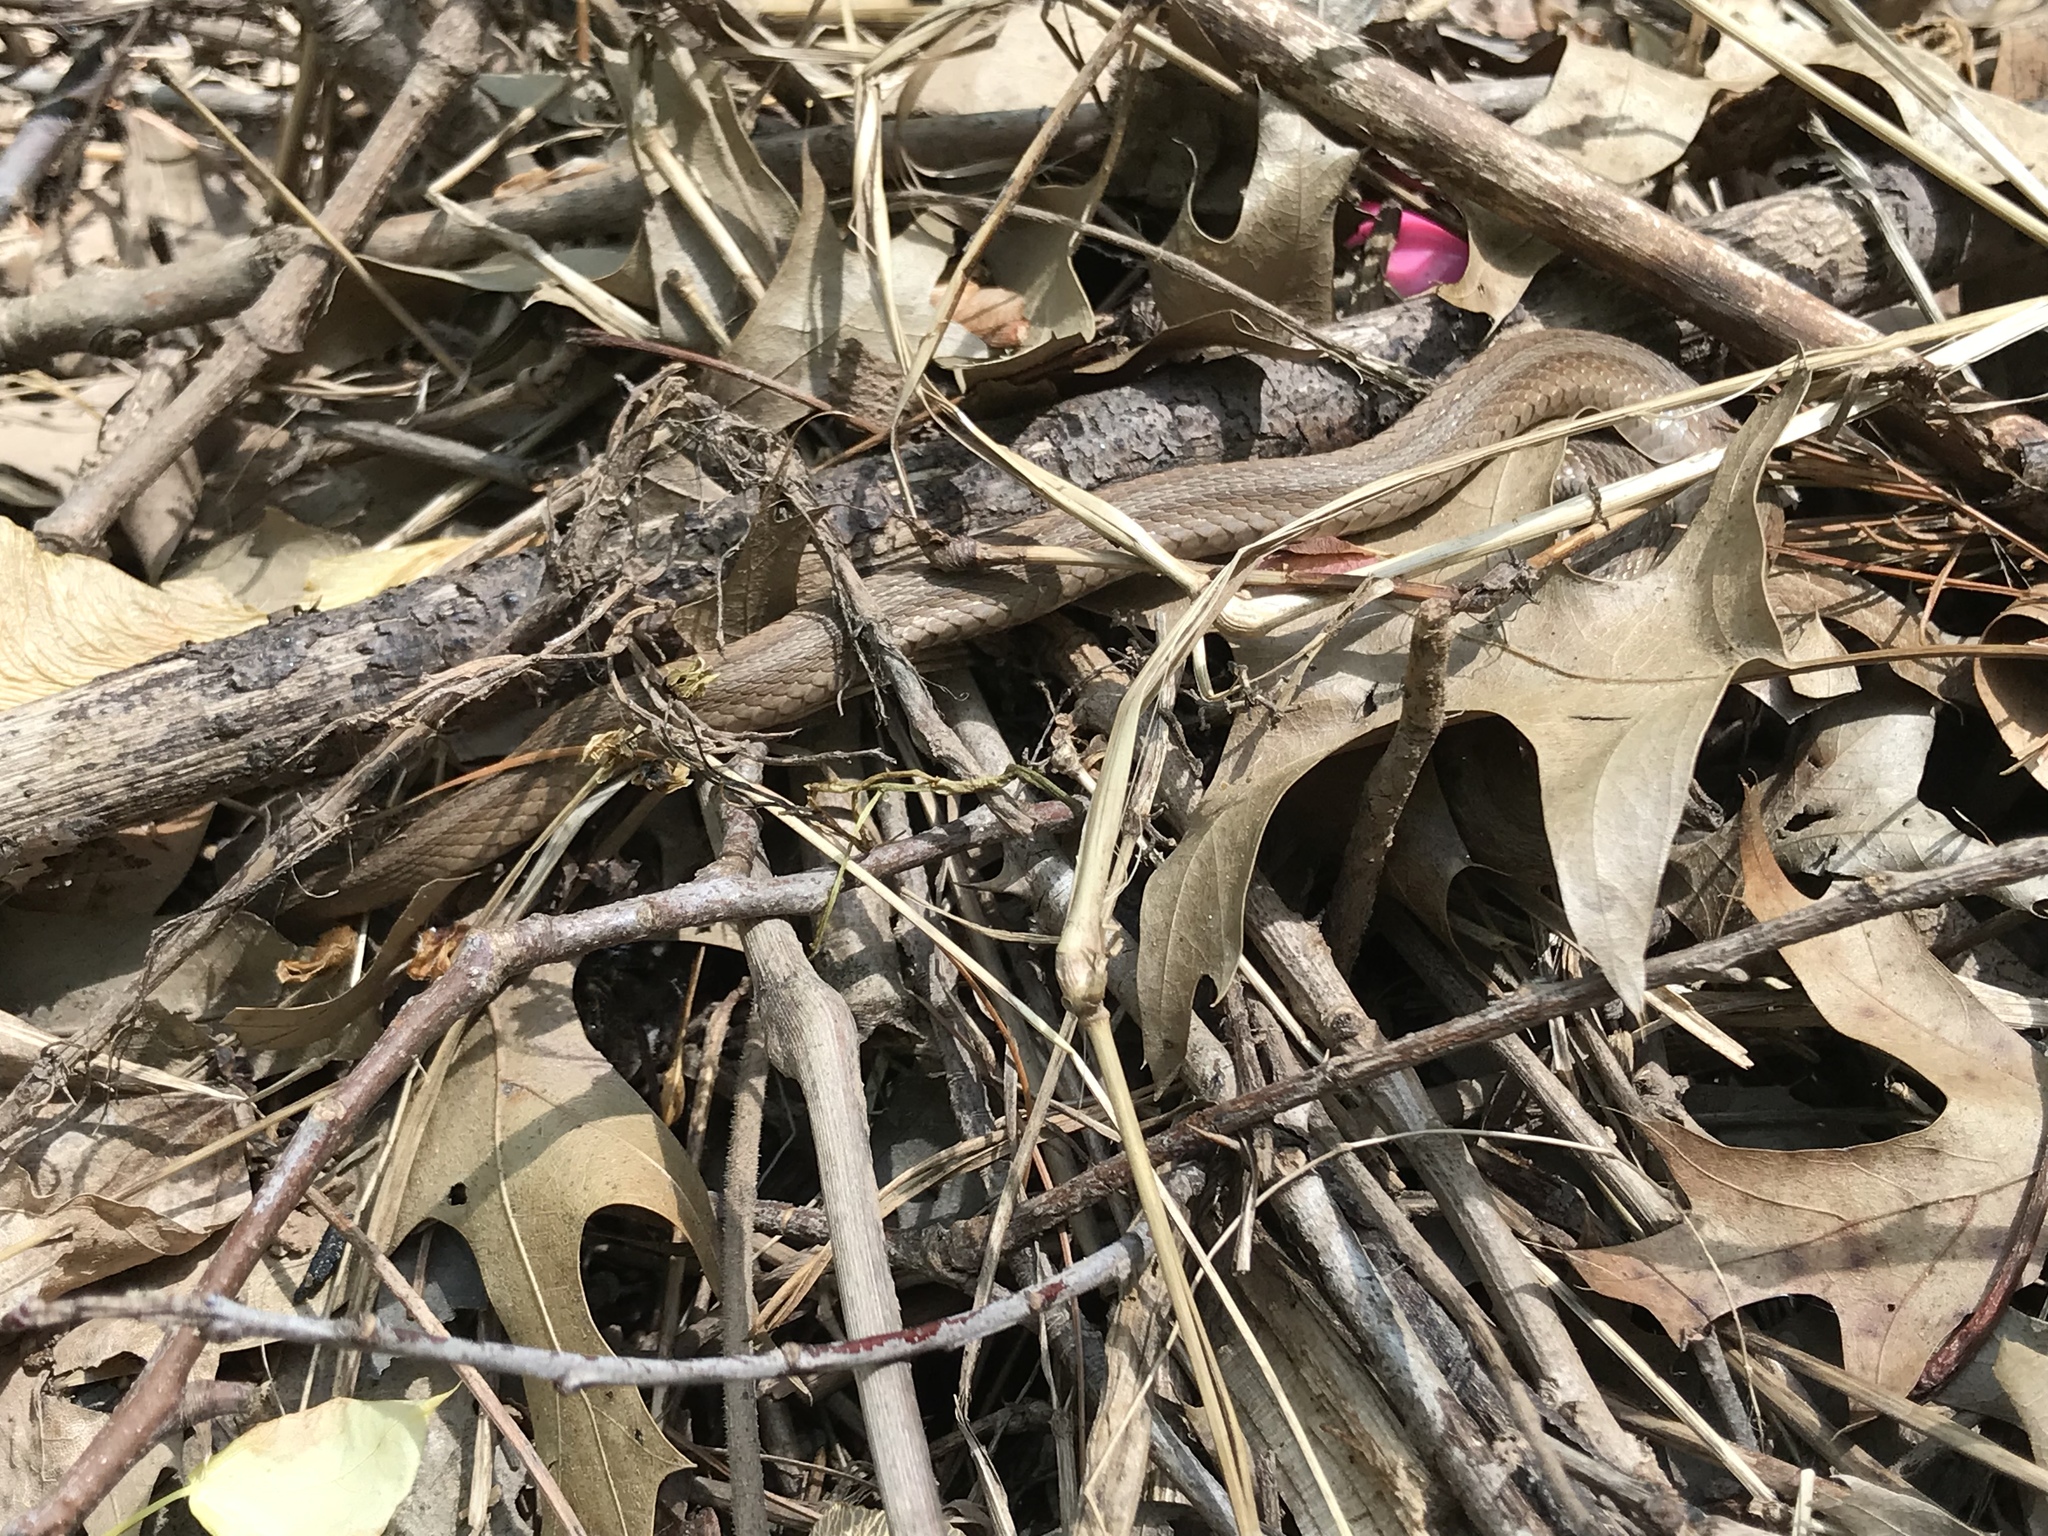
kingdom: Animalia
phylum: Chordata
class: Squamata
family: Colubridae
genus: Storeria
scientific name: Storeria dekayi
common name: (dekay’s) brown snake
